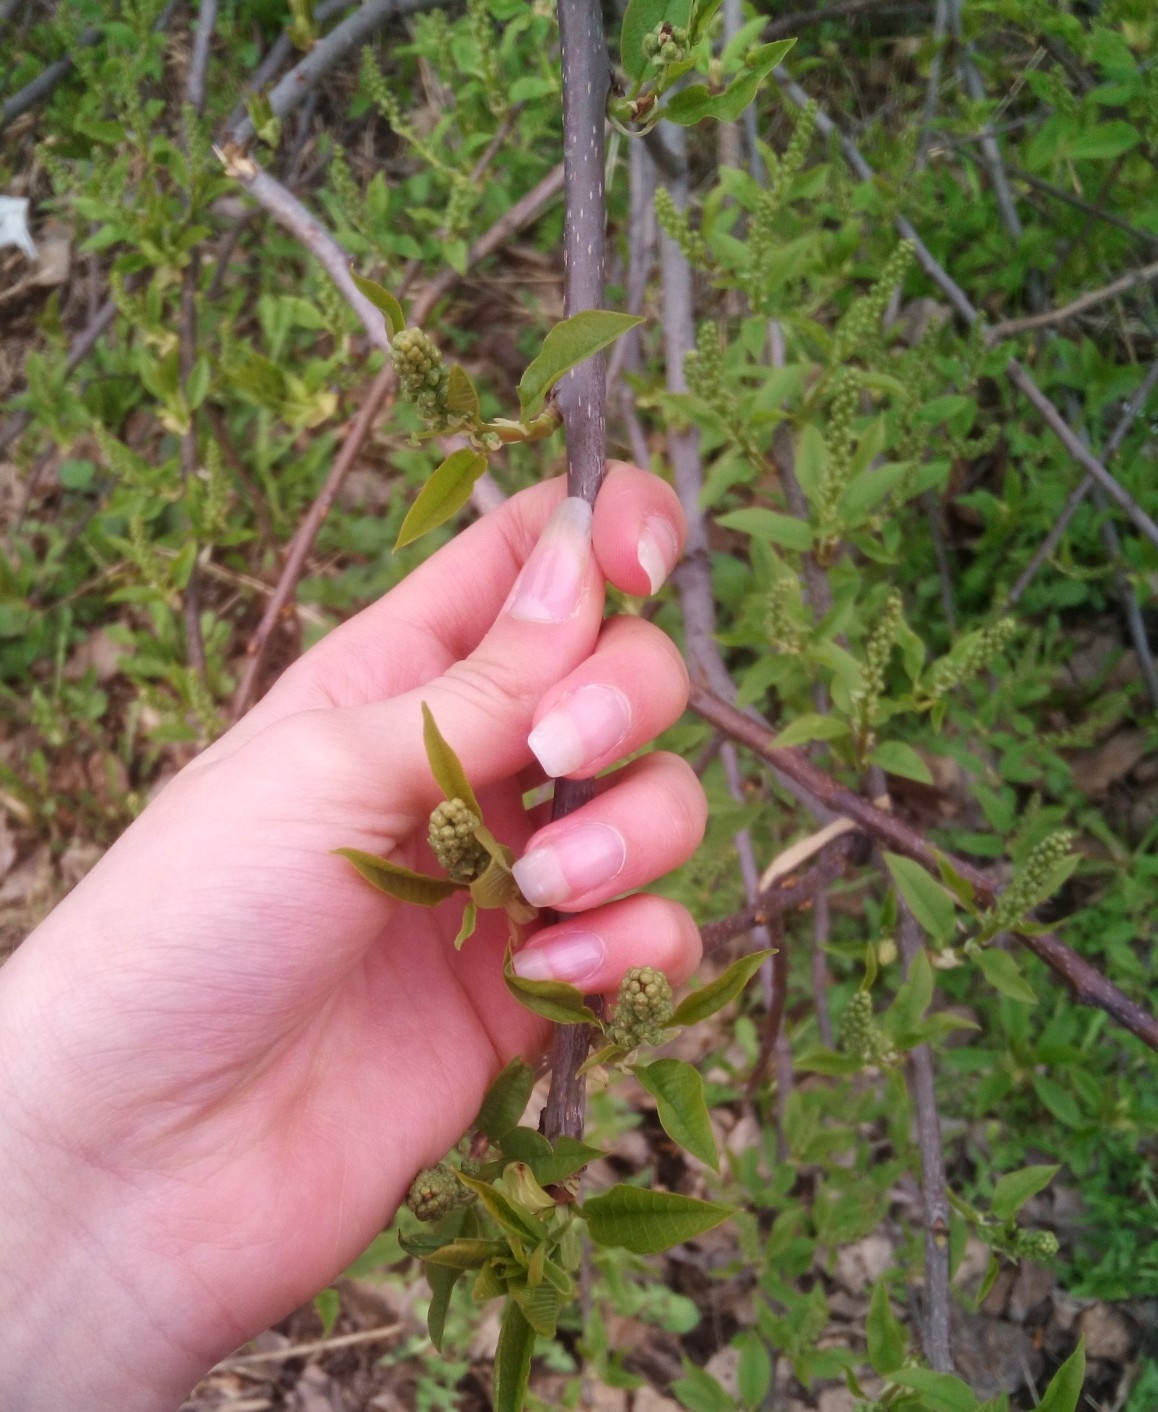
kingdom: Plantae
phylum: Tracheophyta
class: Magnoliopsida
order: Rosales
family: Rosaceae
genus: Prunus
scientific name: Prunus padus
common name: Bird cherry
